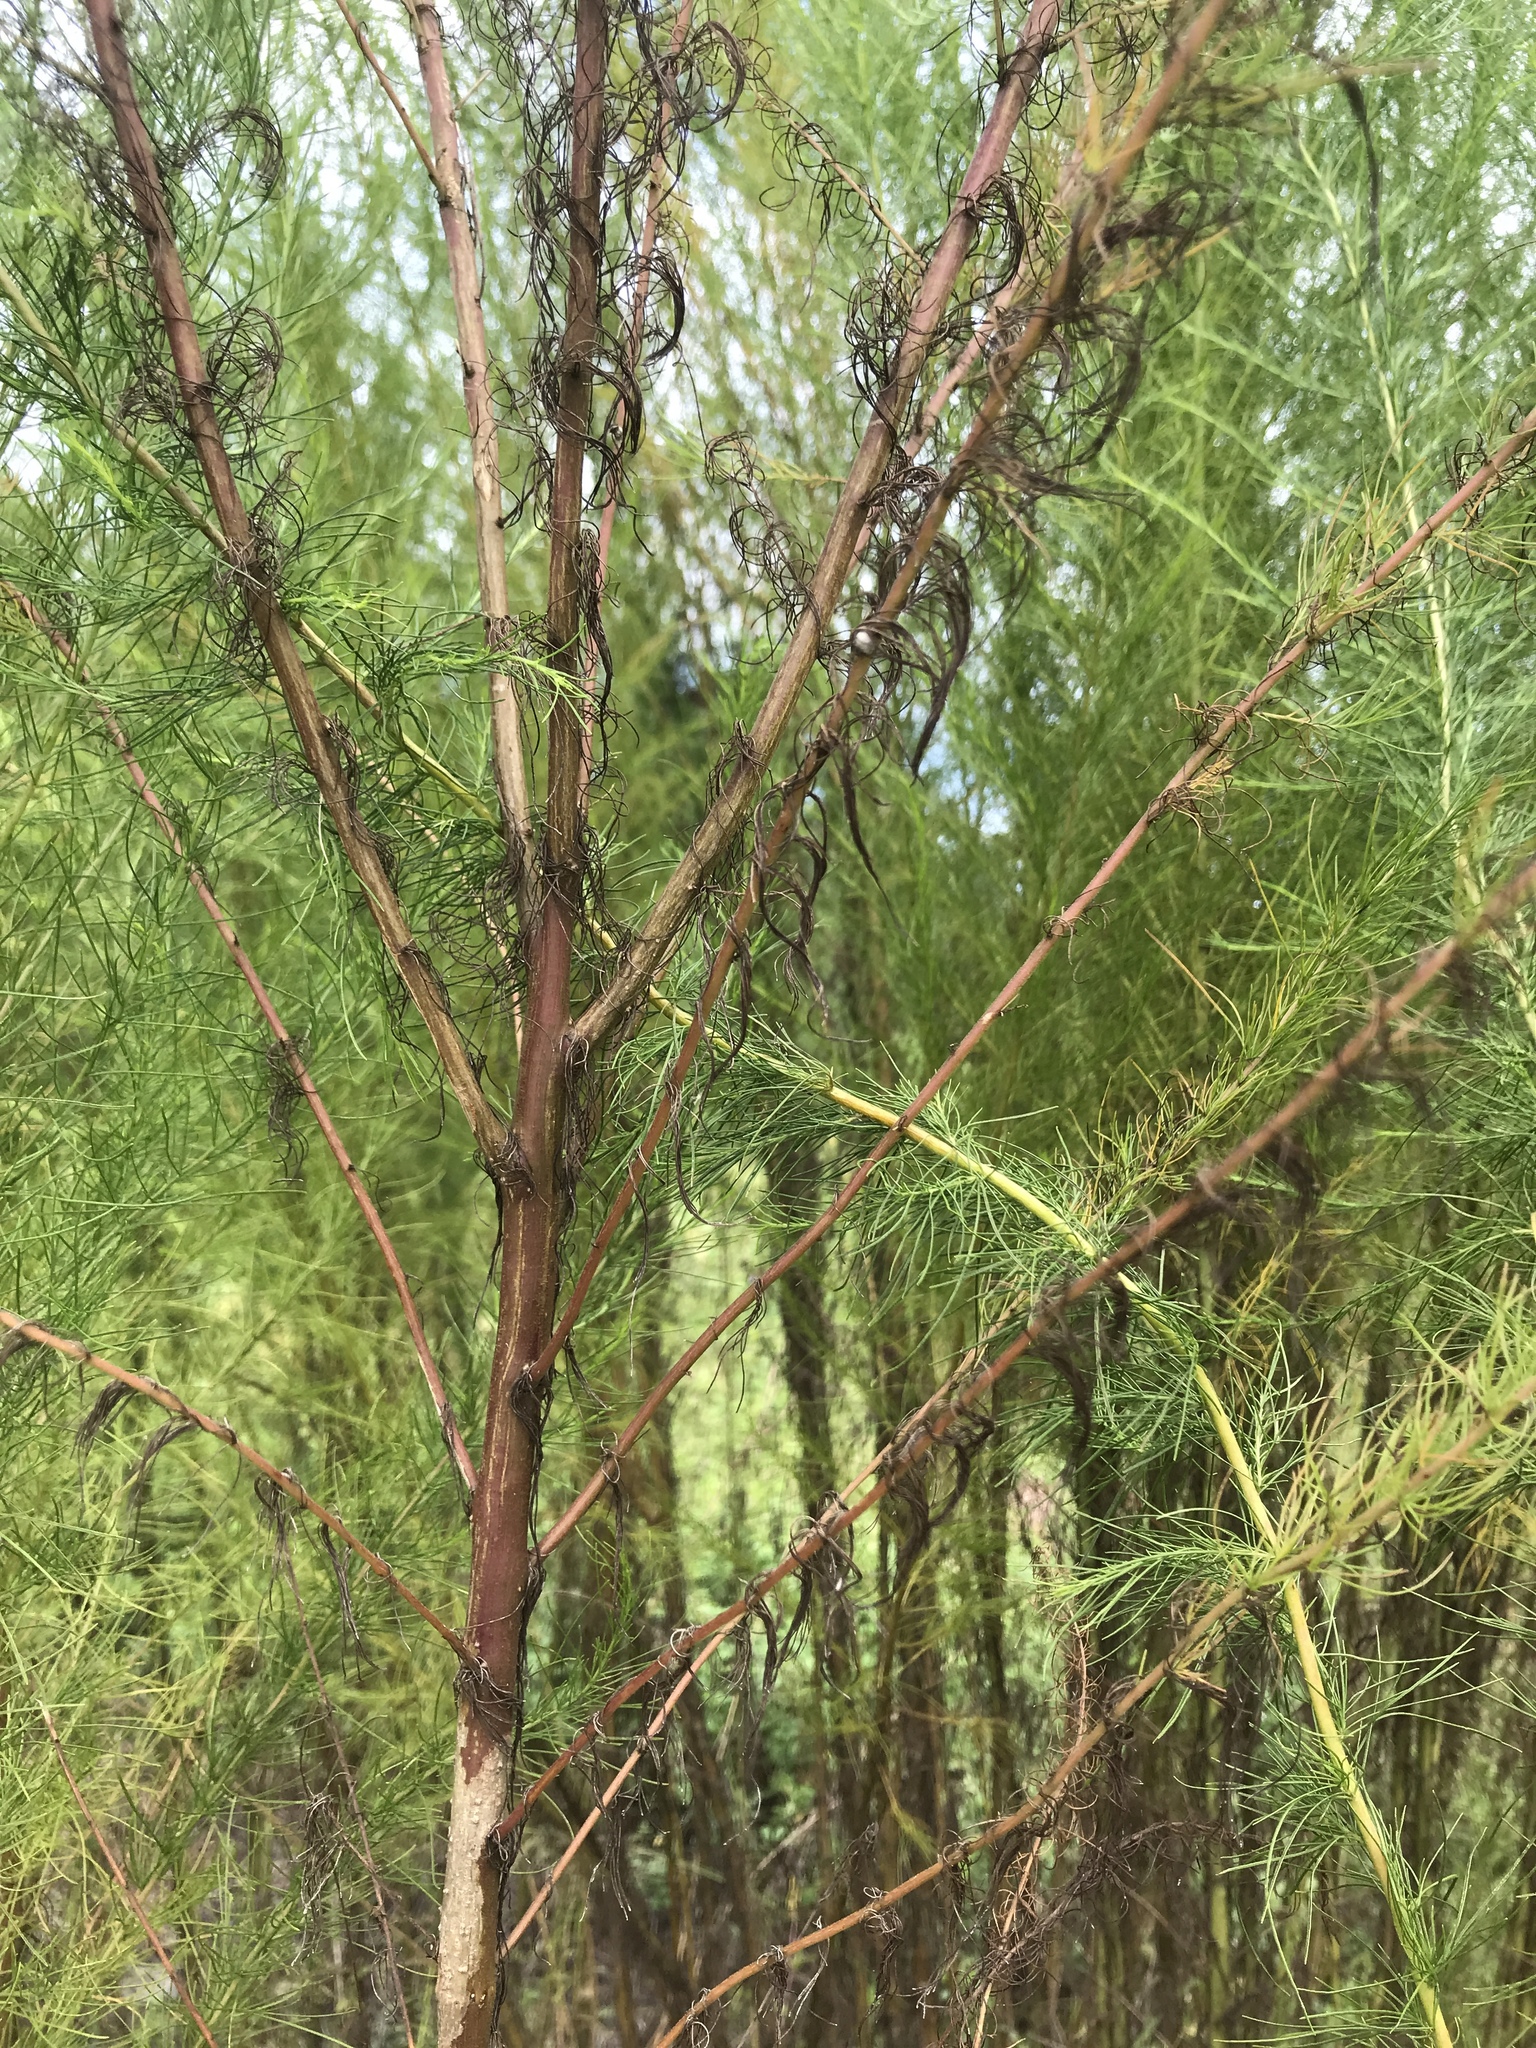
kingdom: Plantae
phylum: Tracheophyta
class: Magnoliopsida
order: Asterales
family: Asteraceae
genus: Eupatorium
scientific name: Eupatorium capillifolium
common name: Dog-fennel
